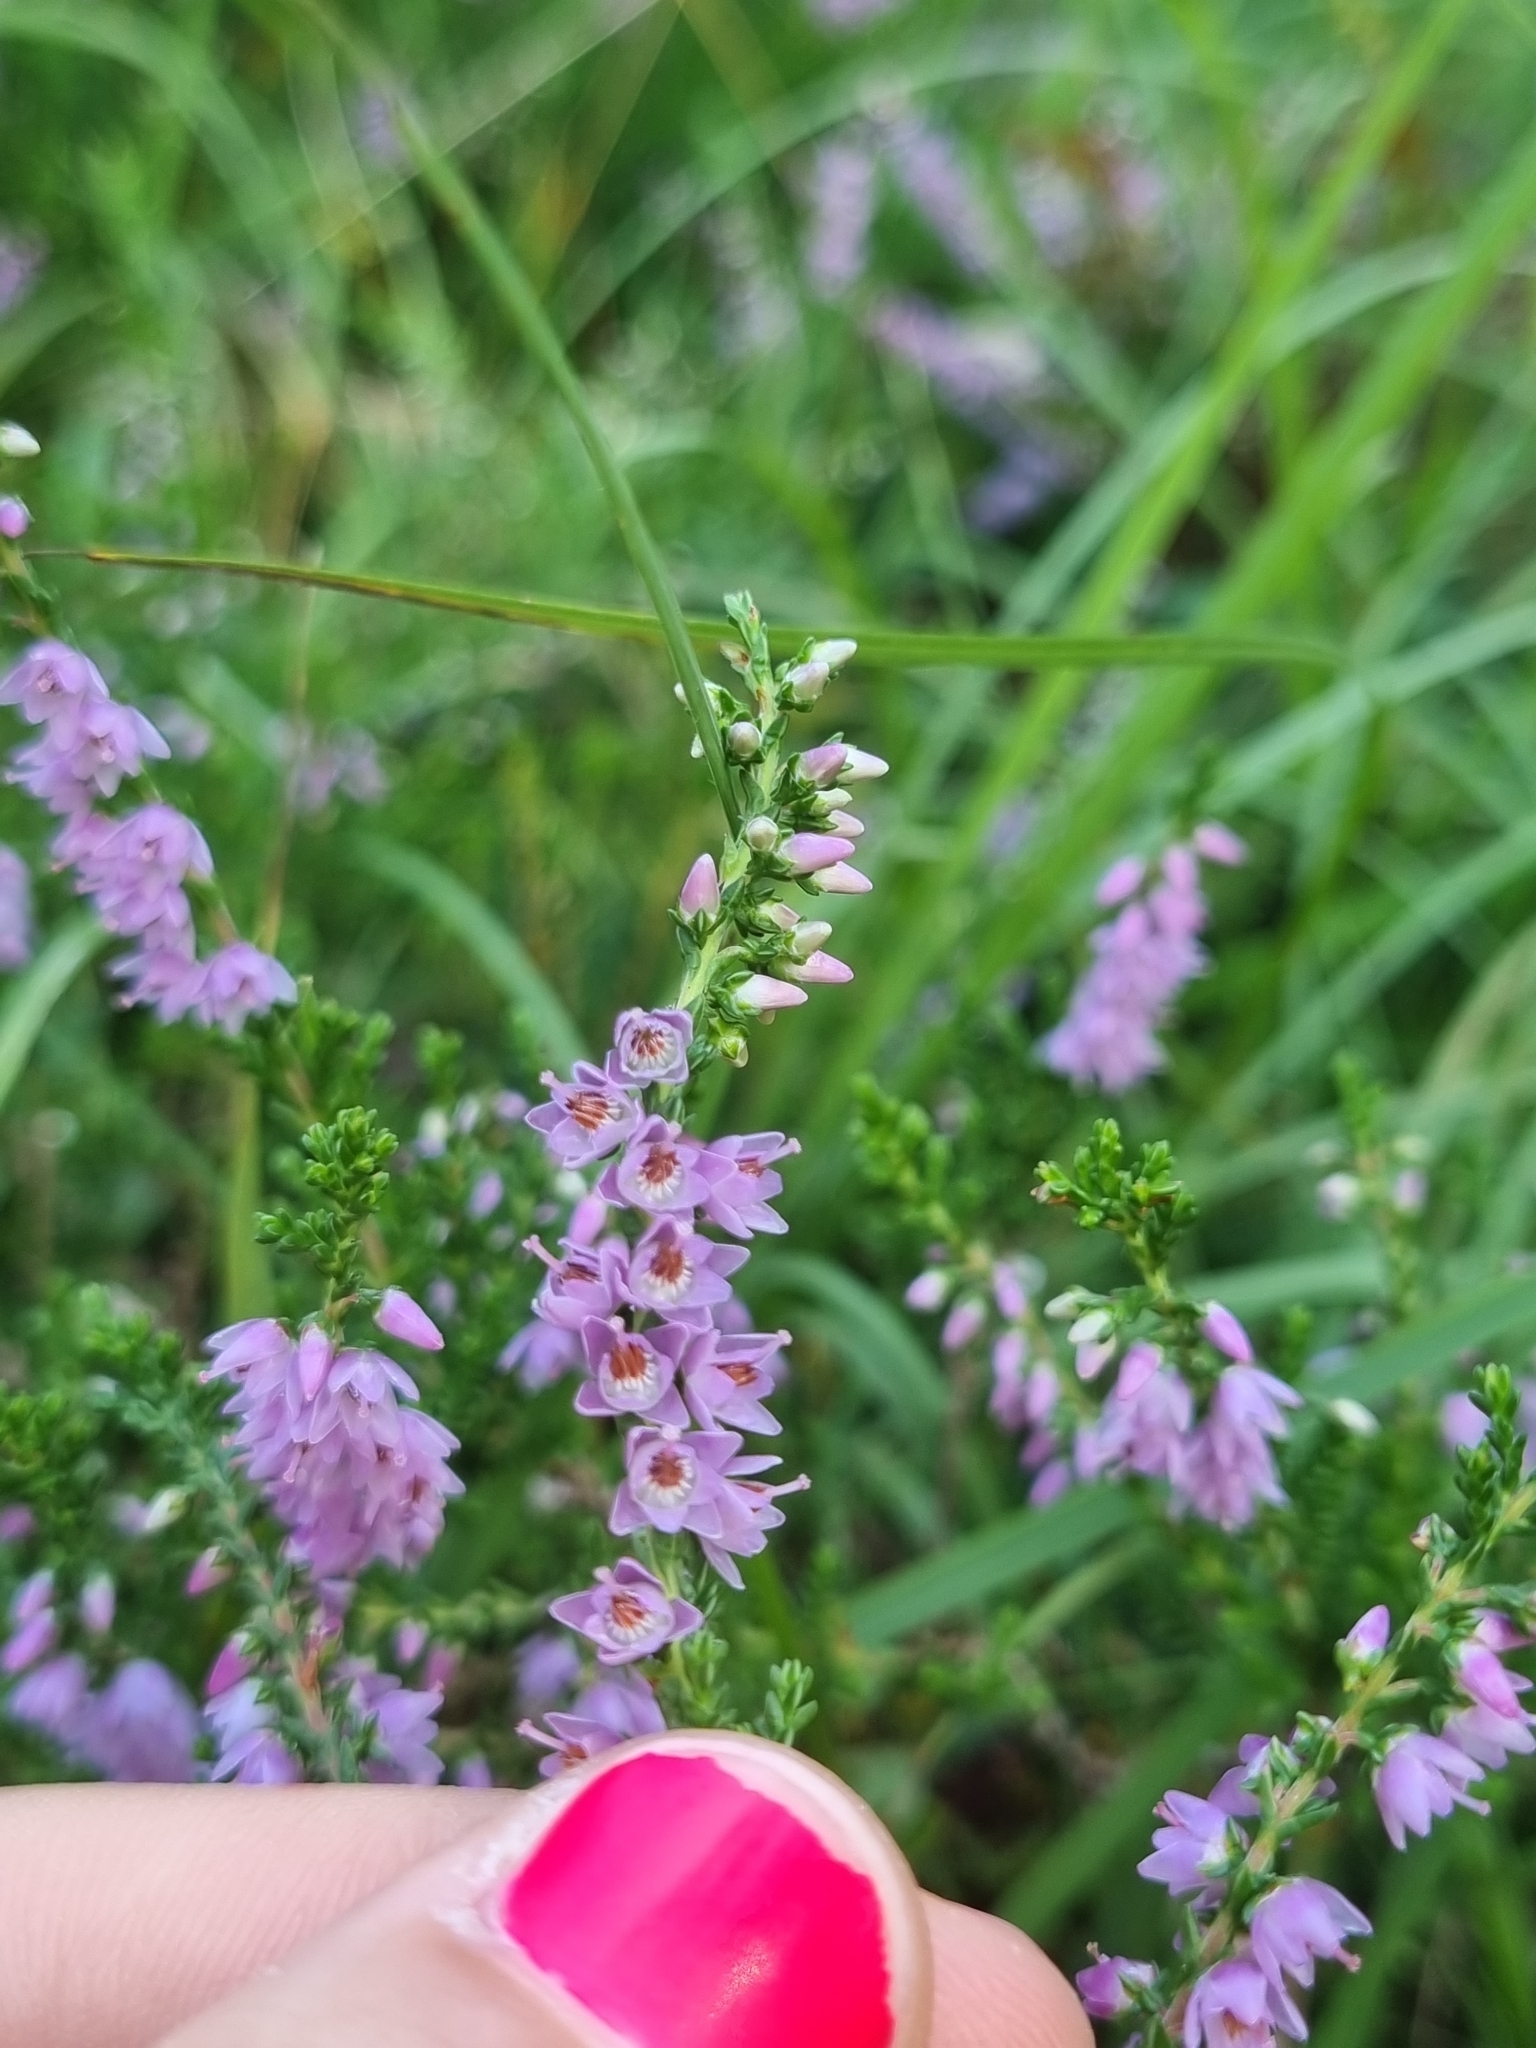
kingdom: Plantae
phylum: Tracheophyta
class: Magnoliopsida
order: Ericales
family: Ericaceae
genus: Calluna
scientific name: Calluna vulgaris
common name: Heather
